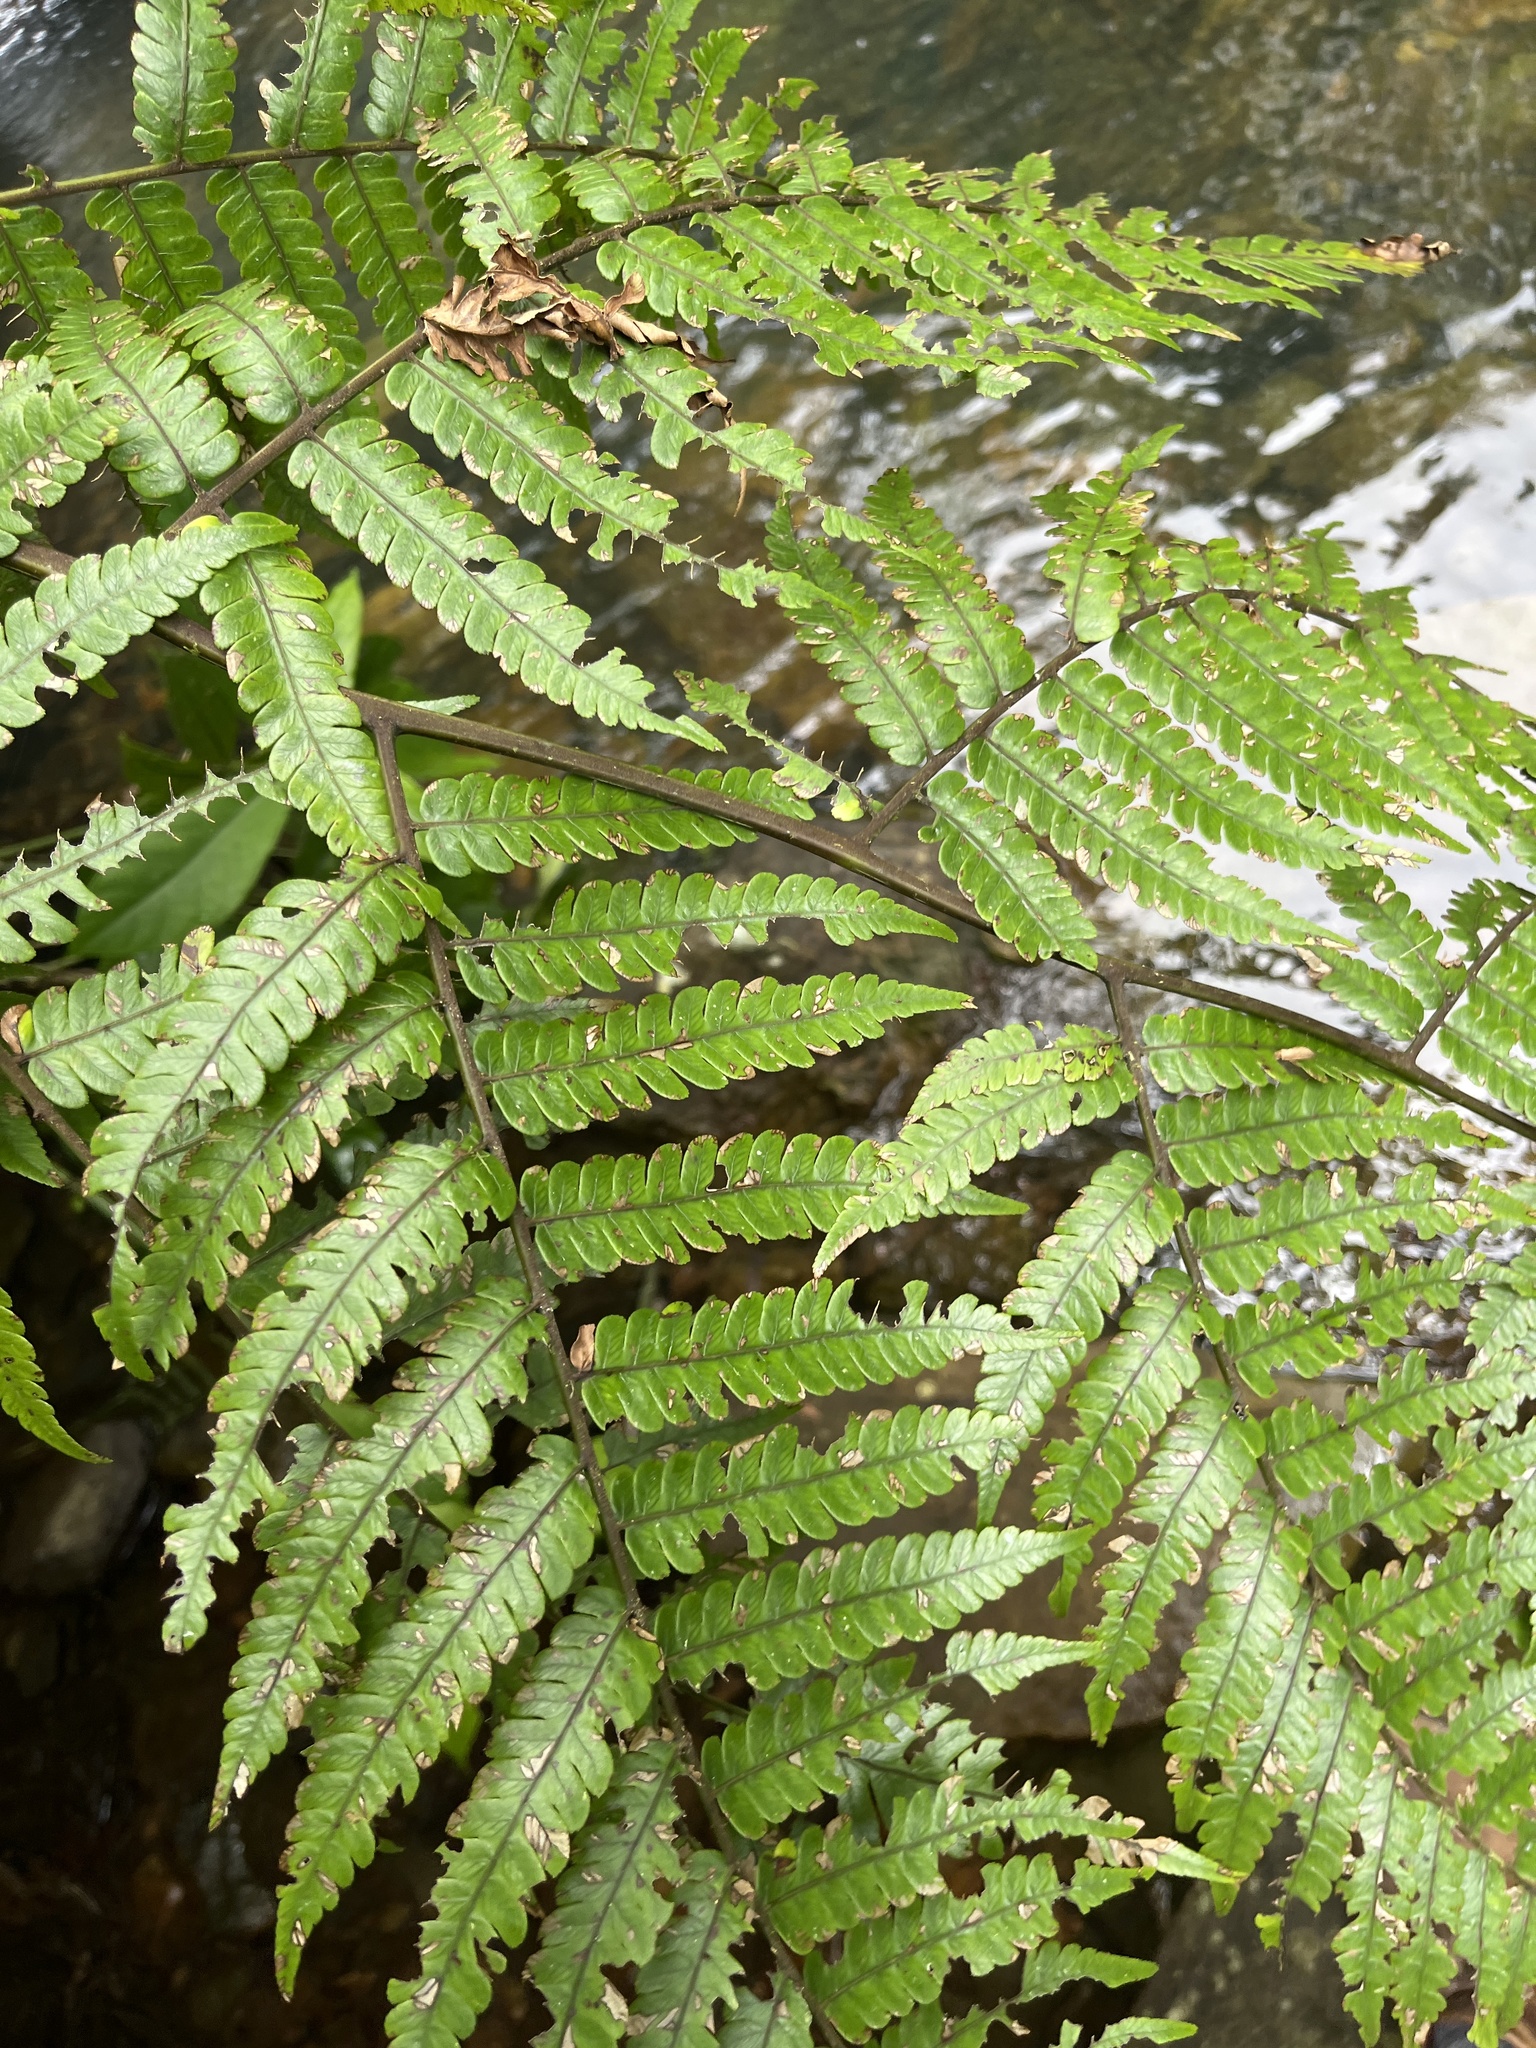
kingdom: Plantae
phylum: Tracheophyta
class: Polypodiopsida
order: Cyatheales
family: Cyatheaceae
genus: Cyathea
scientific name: Cyathea borinquena
